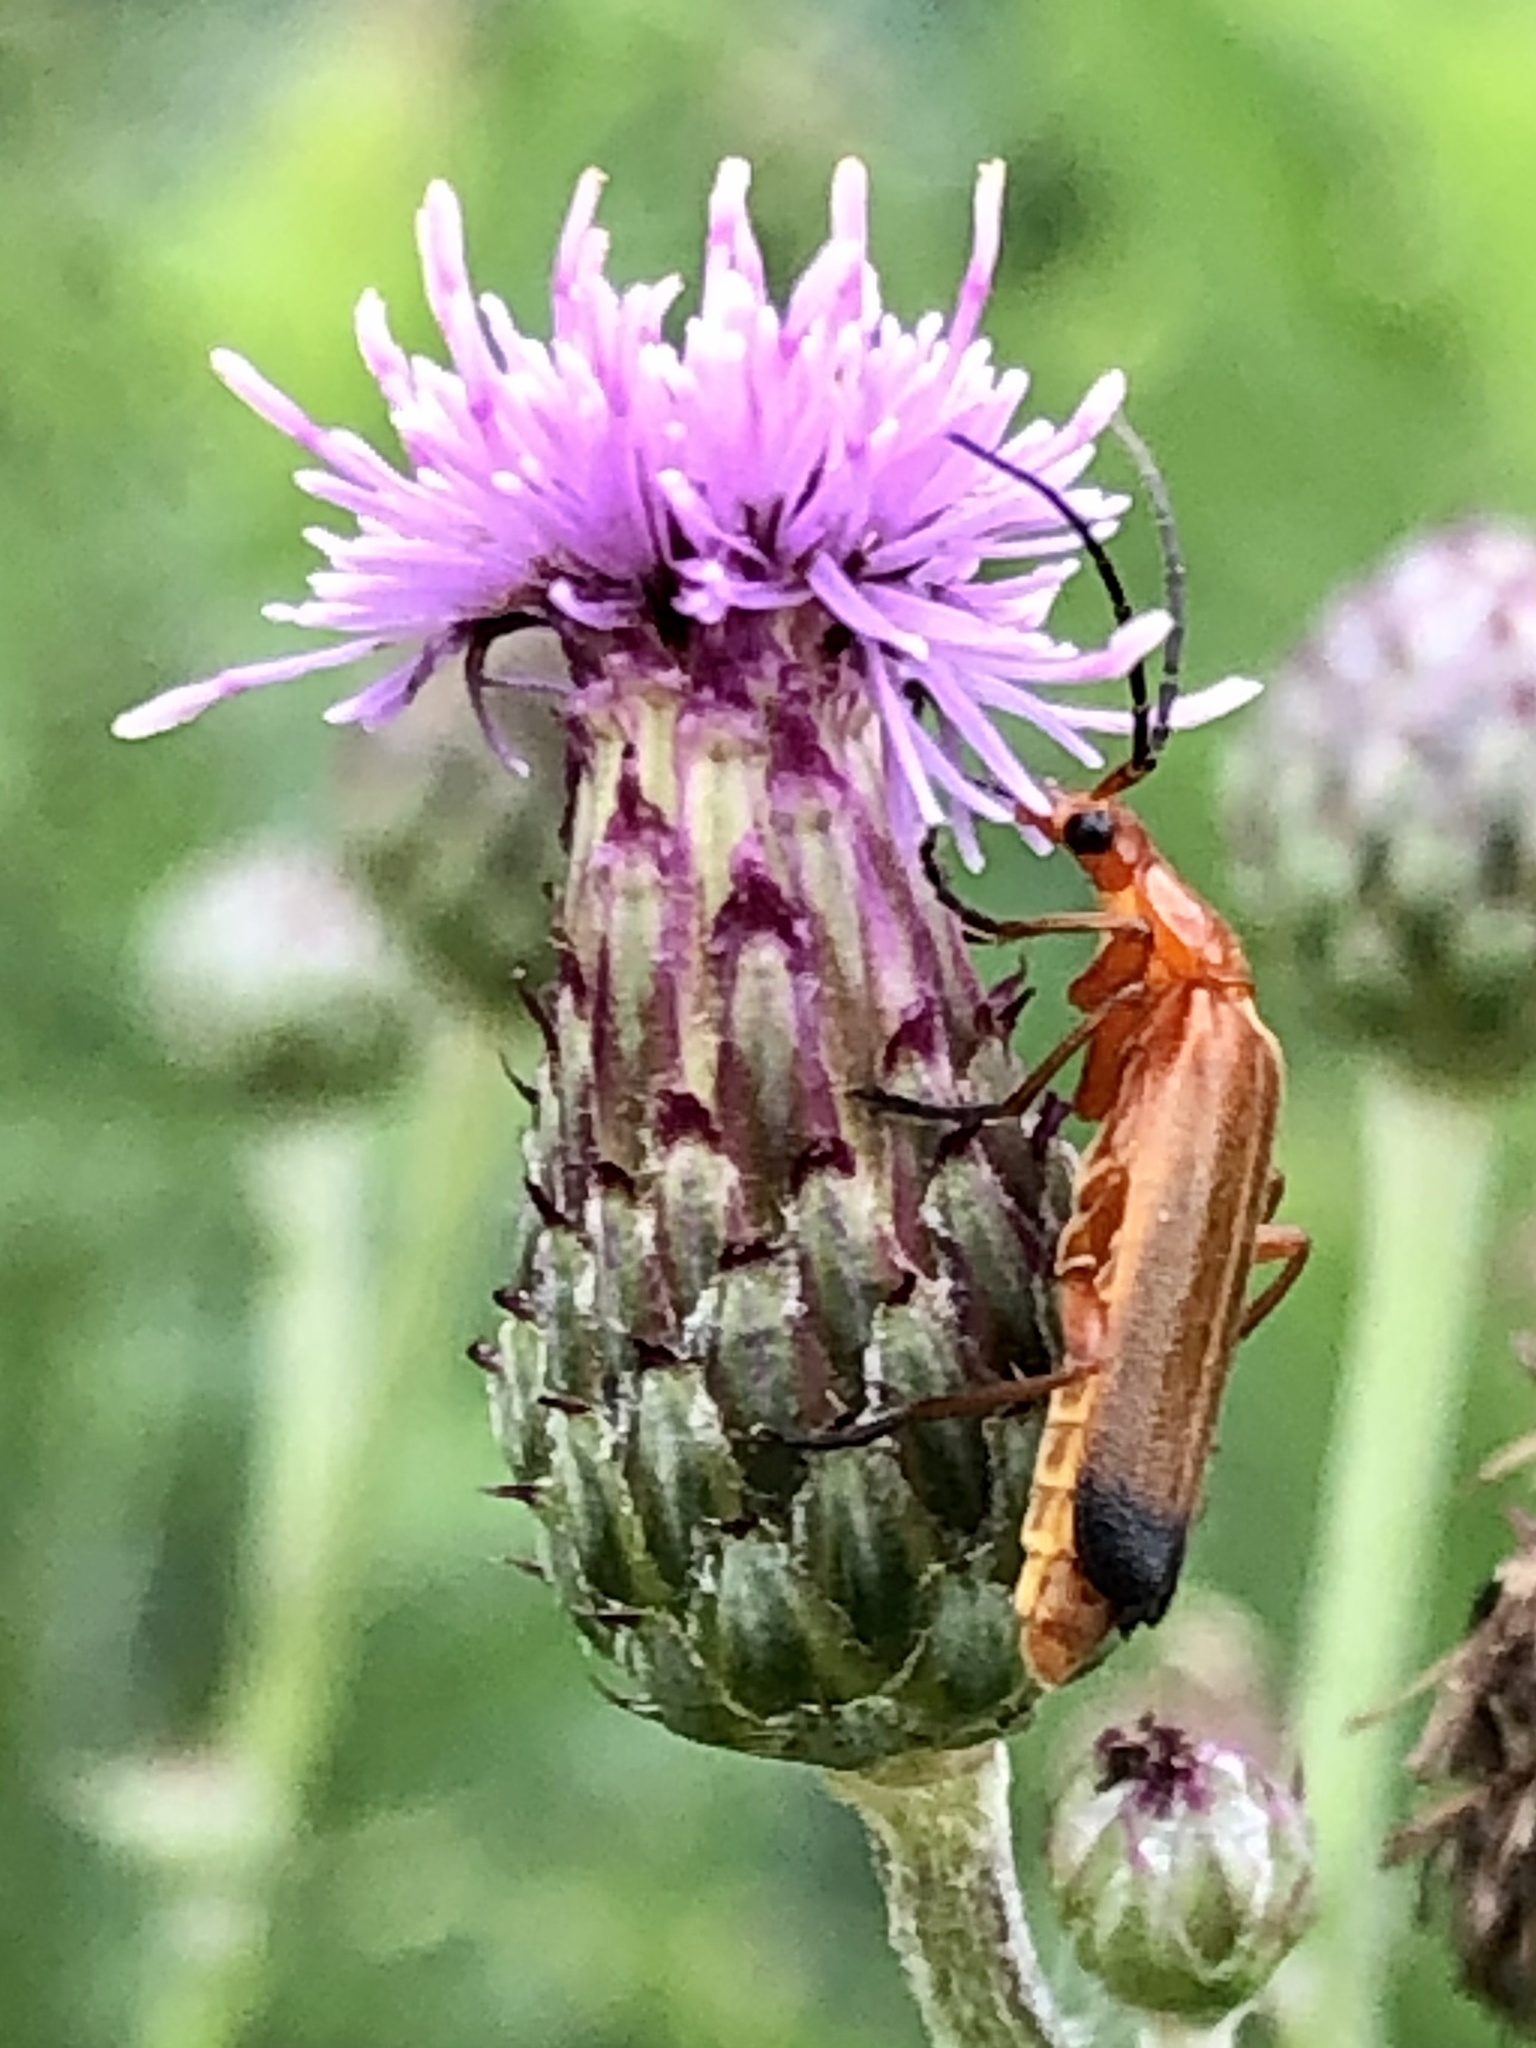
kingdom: Animalia
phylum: Arthropoda
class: Insecta
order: Coleoptera
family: Cantharidae
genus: Rhagonycha
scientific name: Rhagonycha fulva
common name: Common red soldier beetle
